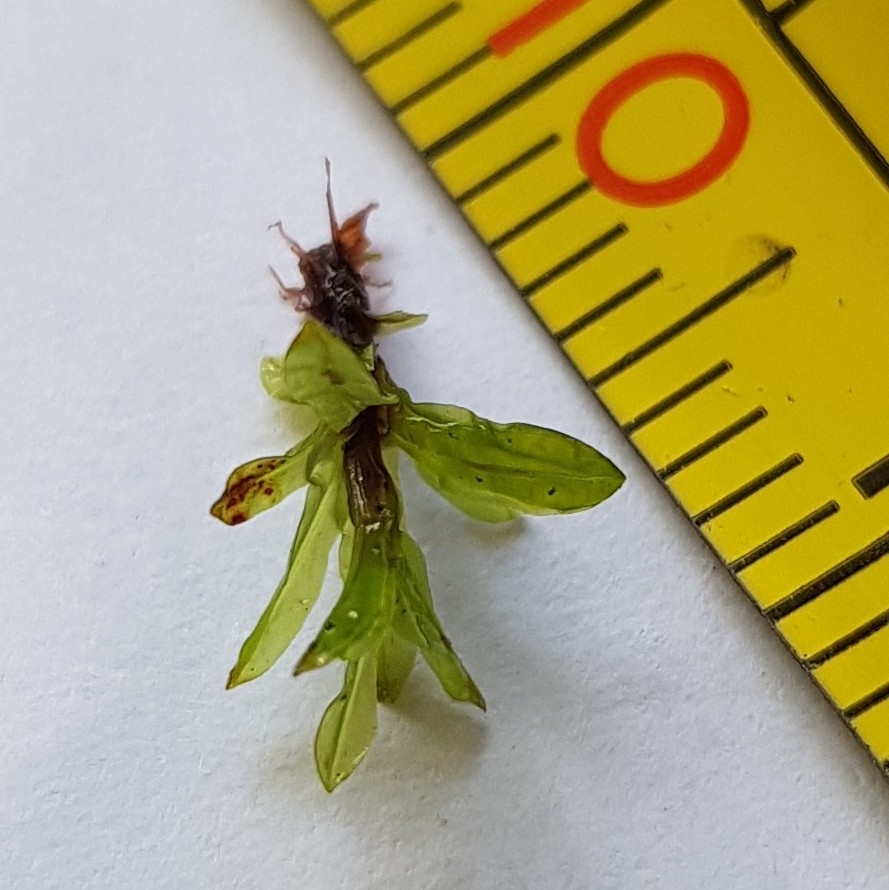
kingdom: Plantae
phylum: Bryophyta
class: Bryopsida
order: Encalyptales
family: Encalyptaceae
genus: Encalypta
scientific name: Encalypta streptocarpa
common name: Spiral extinguisher-moss
